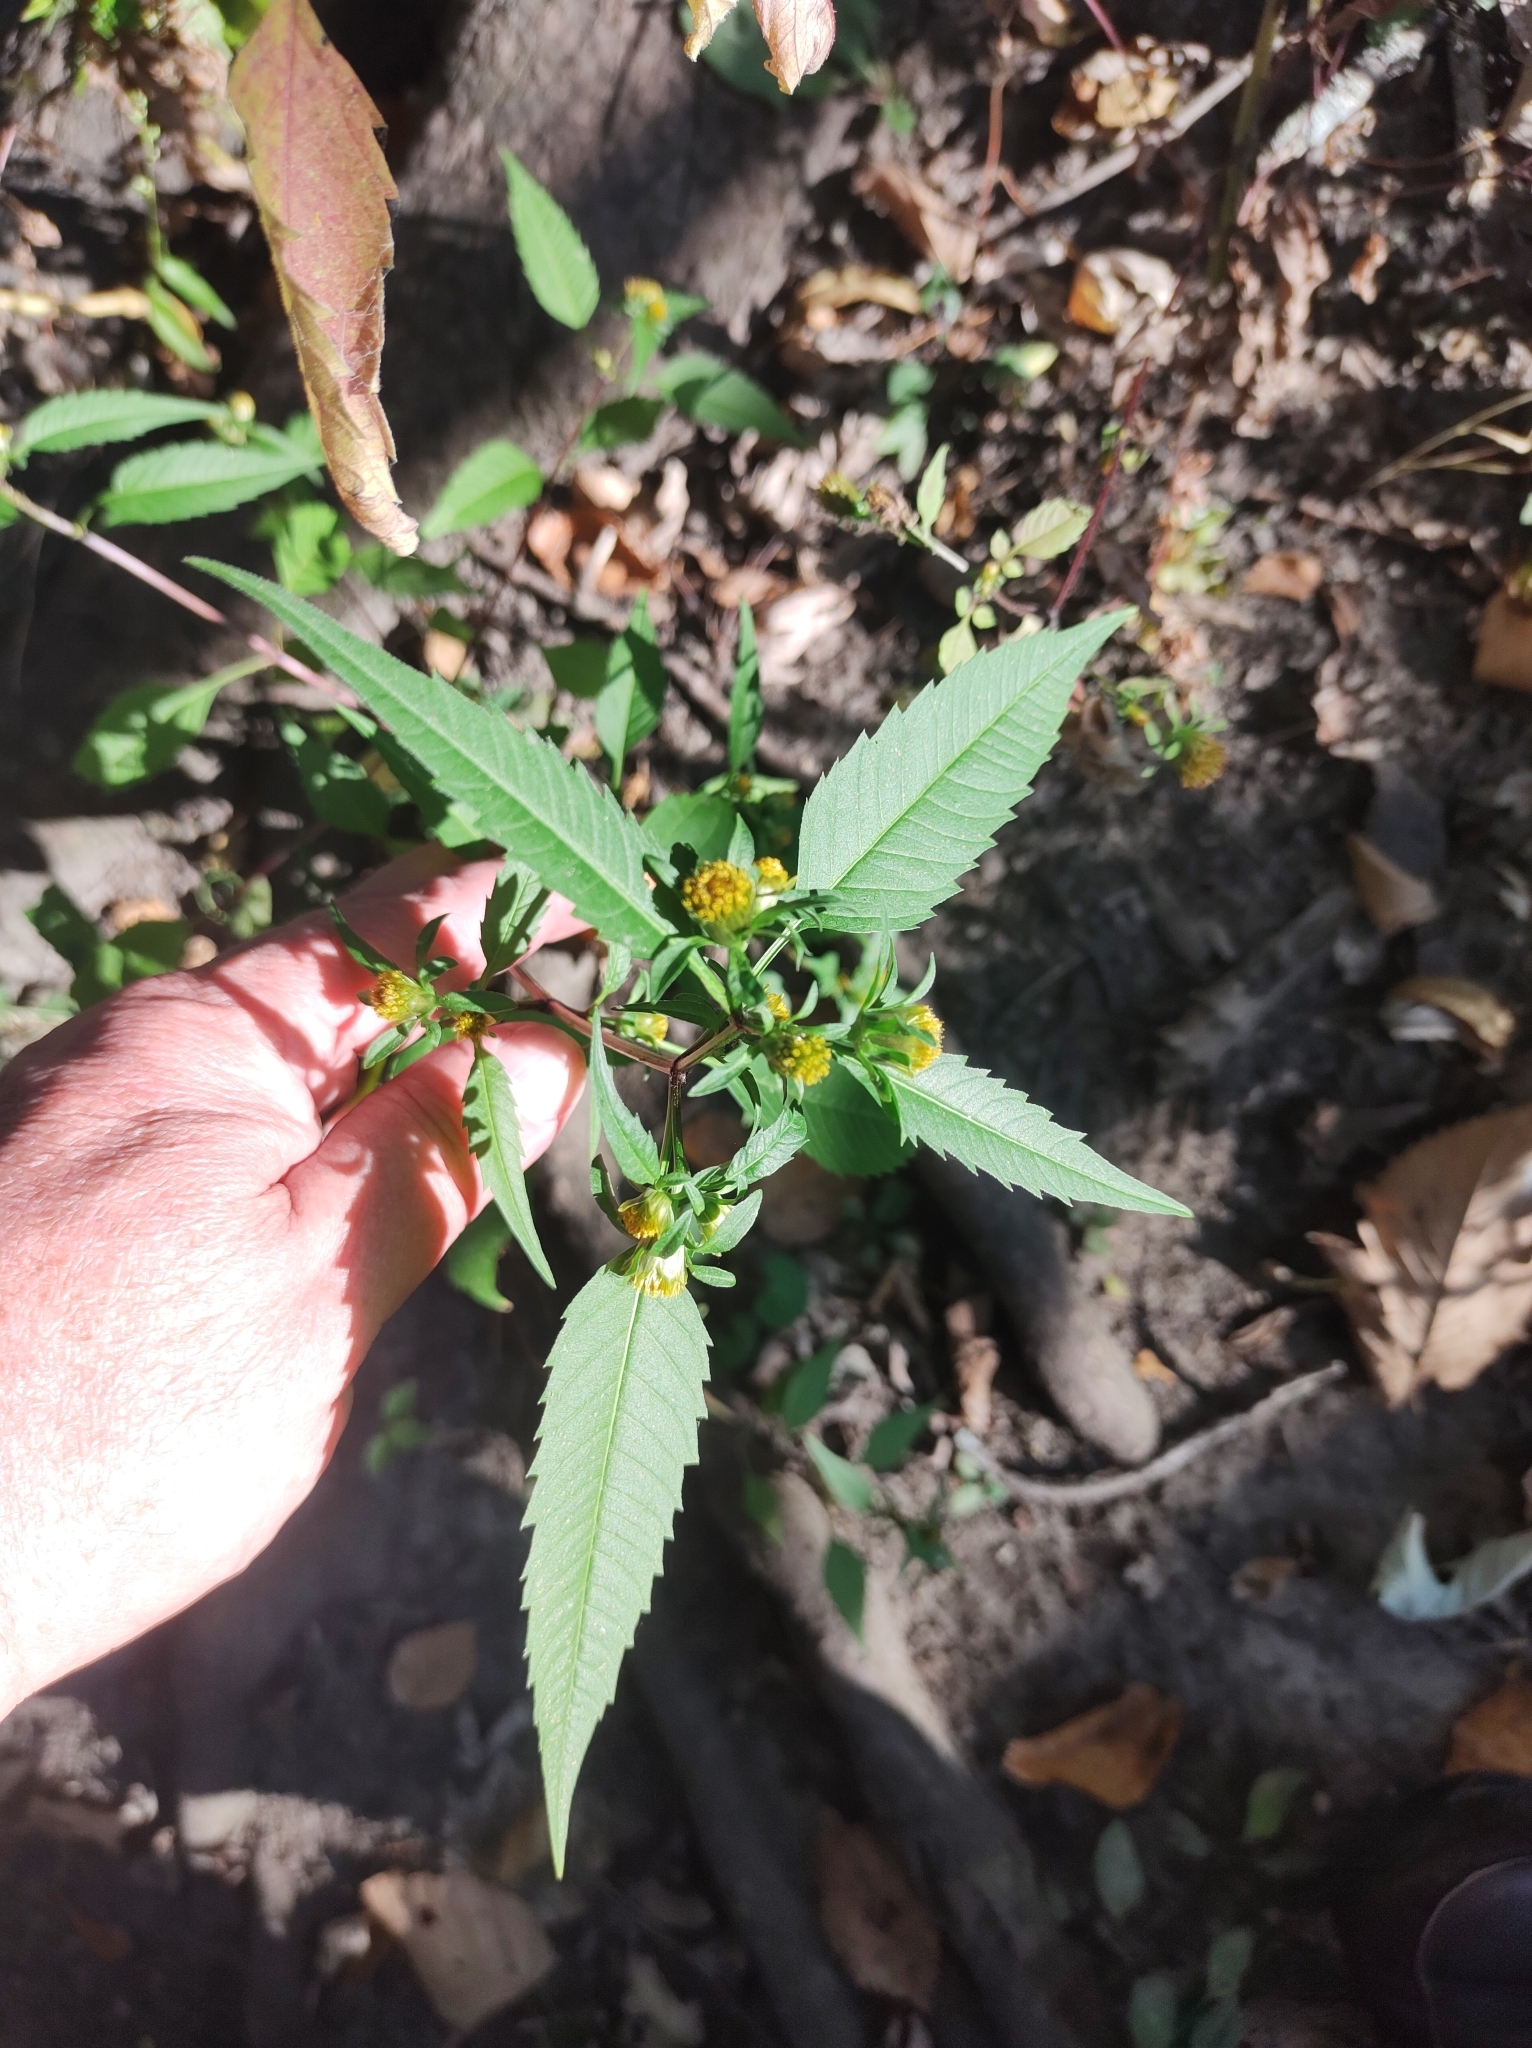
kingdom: Plantae
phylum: Tracheophyta
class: Magnoliopsida
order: Asterales
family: Asteraceae
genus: Bidens
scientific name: Bidens connata
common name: London bur-marigold
